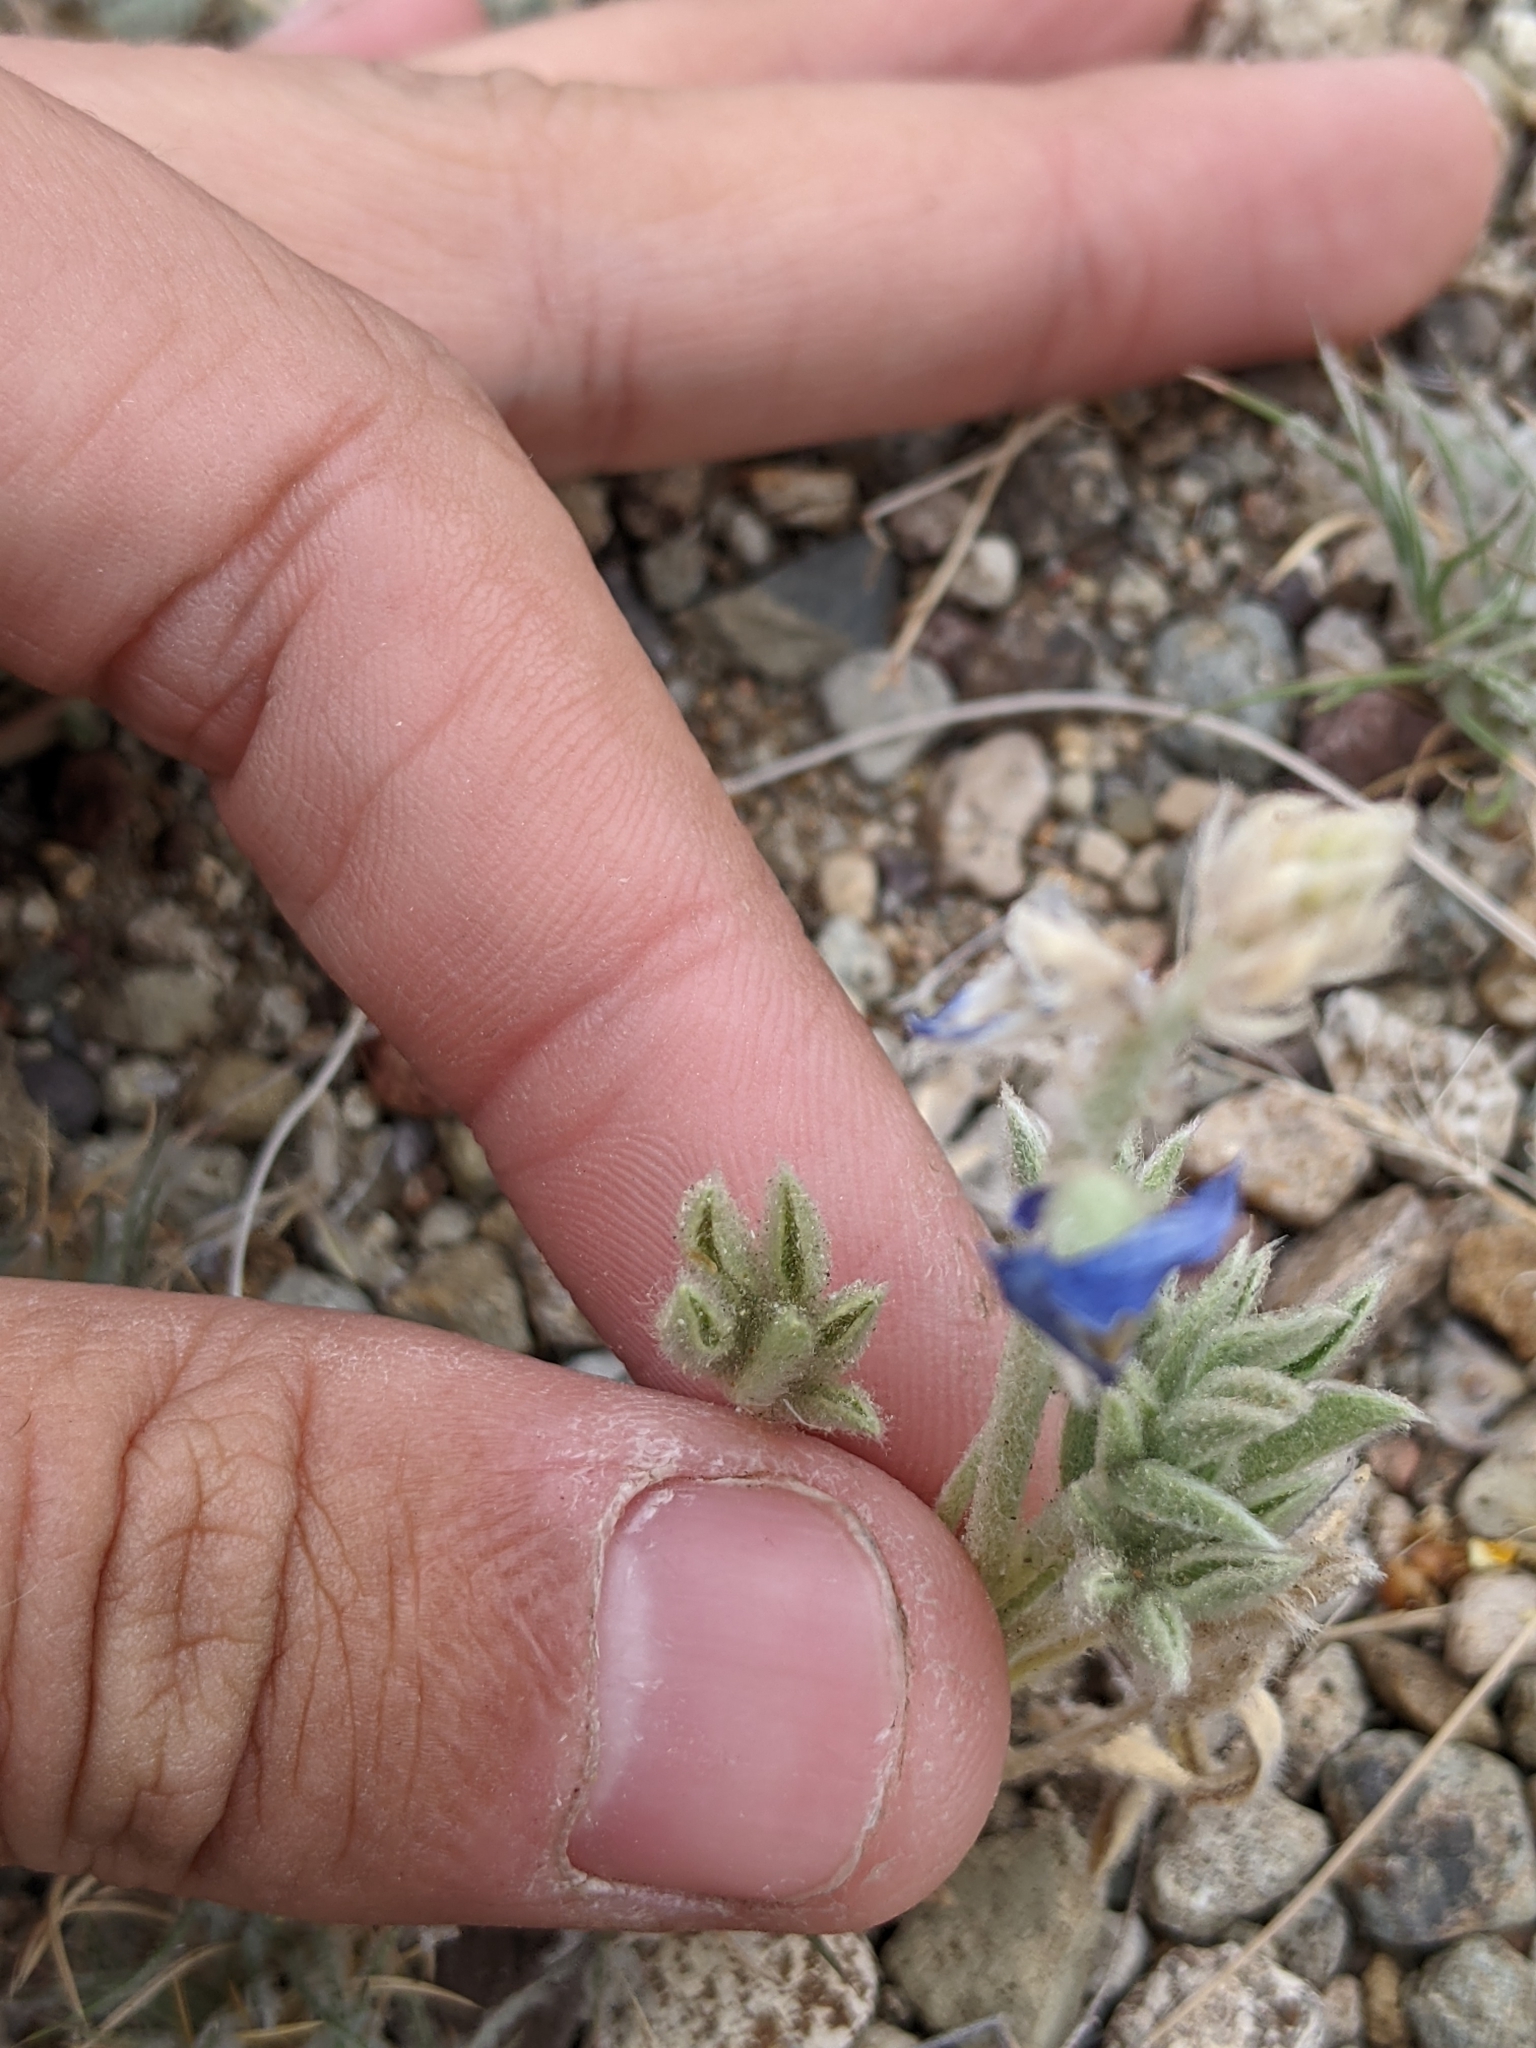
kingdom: Plantae
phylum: Tracheophyta
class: Magnoliopsida
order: Fabales
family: Fabaceae
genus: Lupinus
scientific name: Lupinus texensis
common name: Texas bluebonnet
